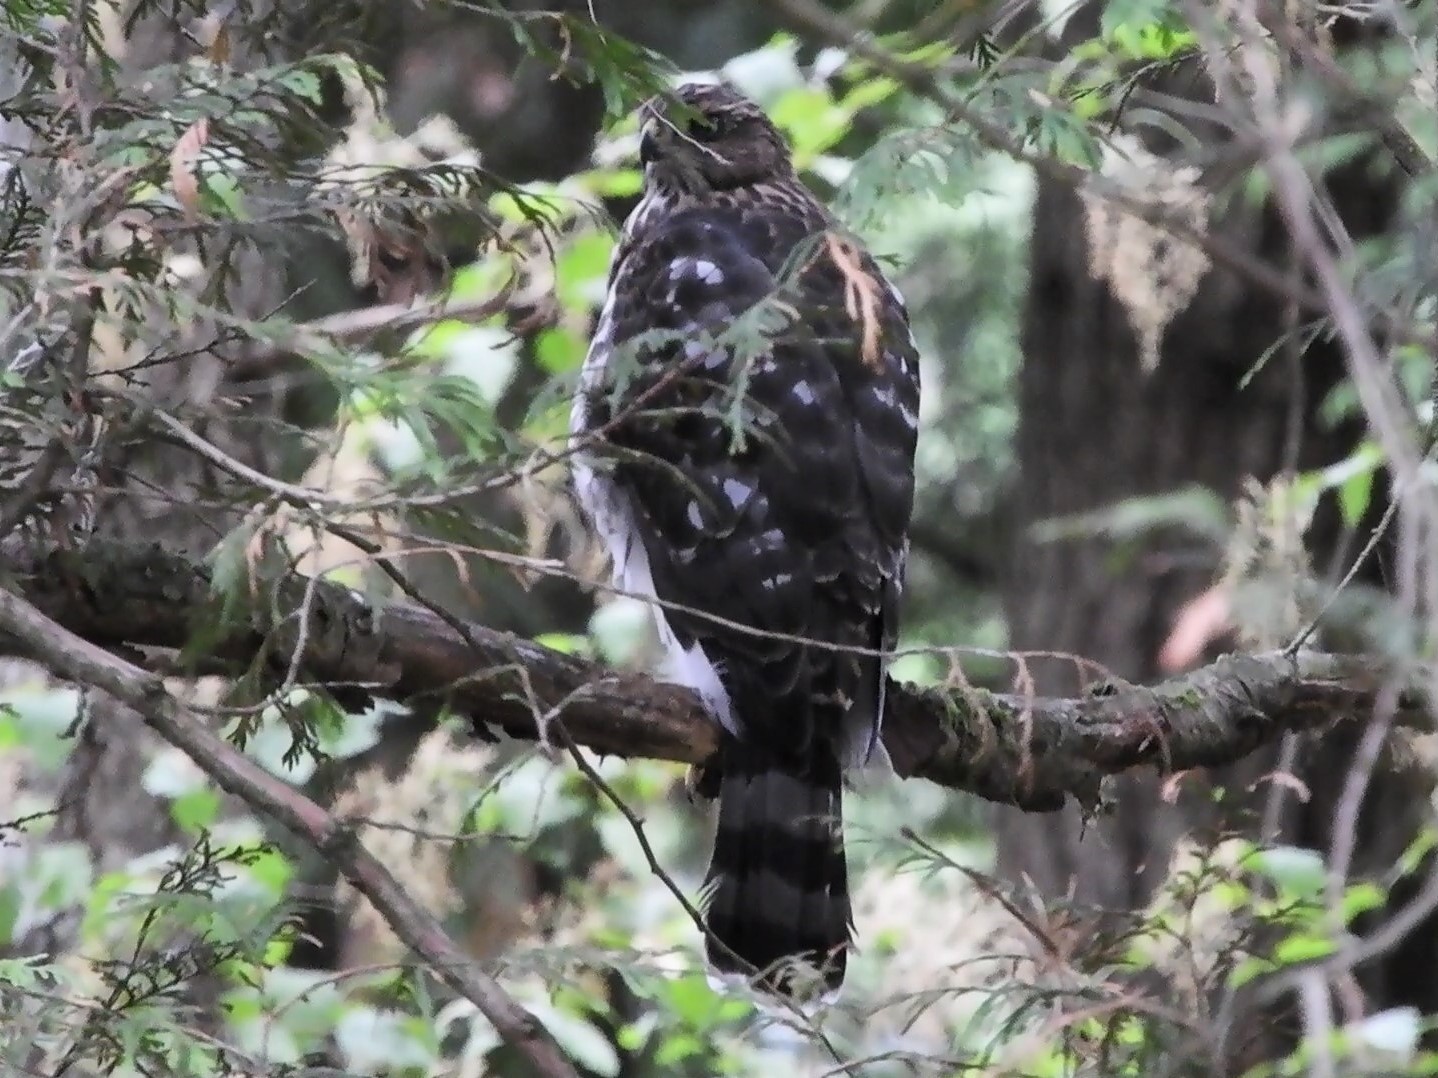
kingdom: Animalia
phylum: Chordata
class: Aves
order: Accipitriformes
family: Accipitridae
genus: Accipiter
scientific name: Accipiter cooperii
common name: Cooper's hawk
